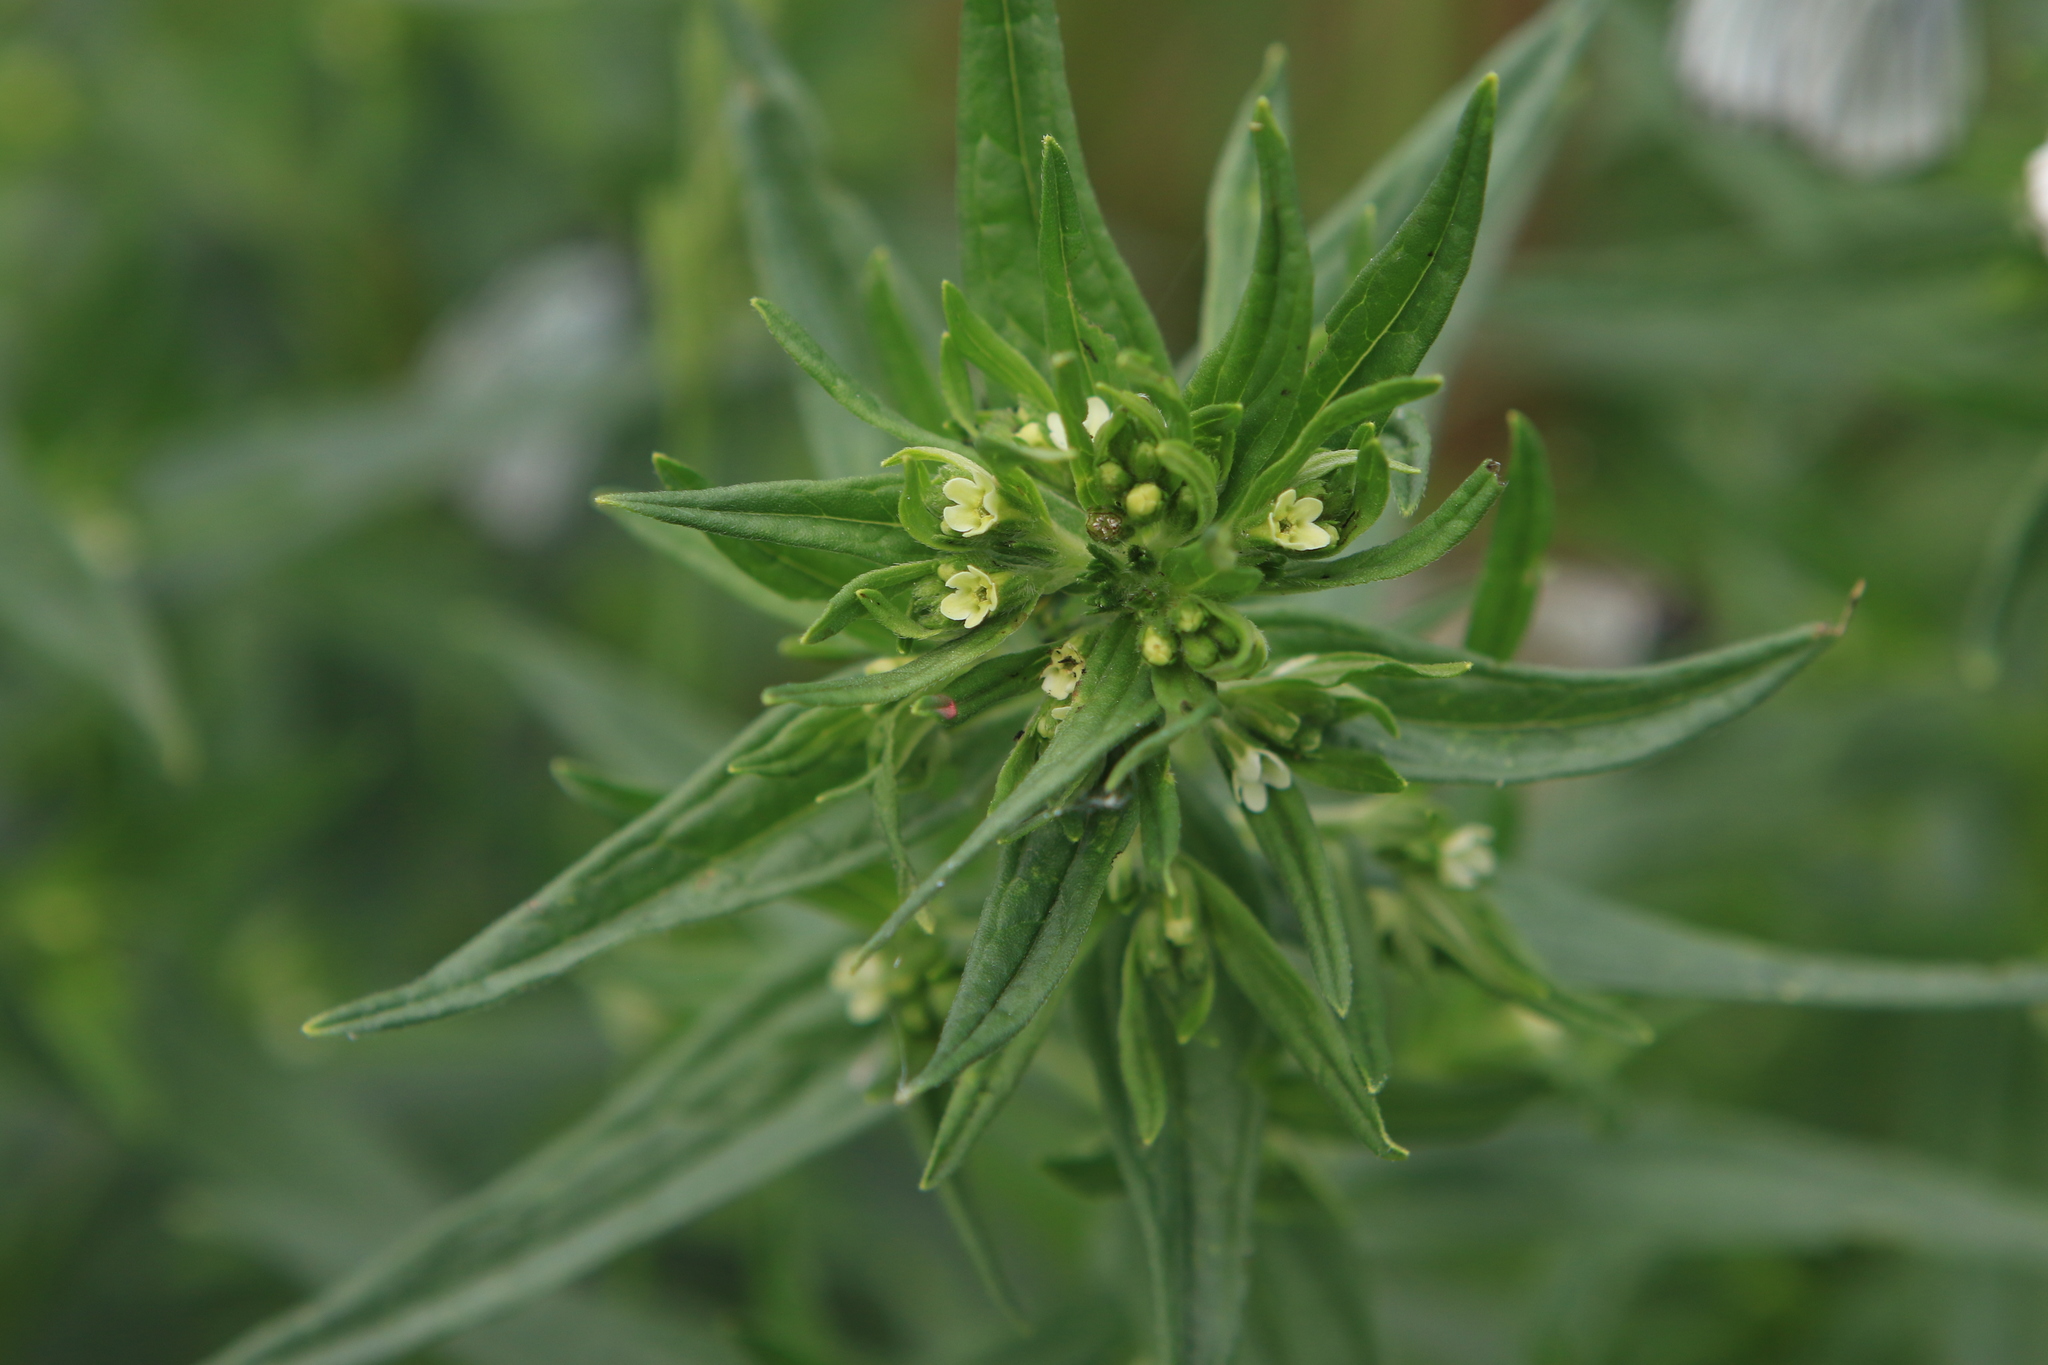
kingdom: Plantae
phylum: Tracheophyta
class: Magnoliopsida
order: Boraginales
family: Boraginaceae
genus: Lithospermum
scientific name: Lithospermum officinale
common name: Common gromwell
